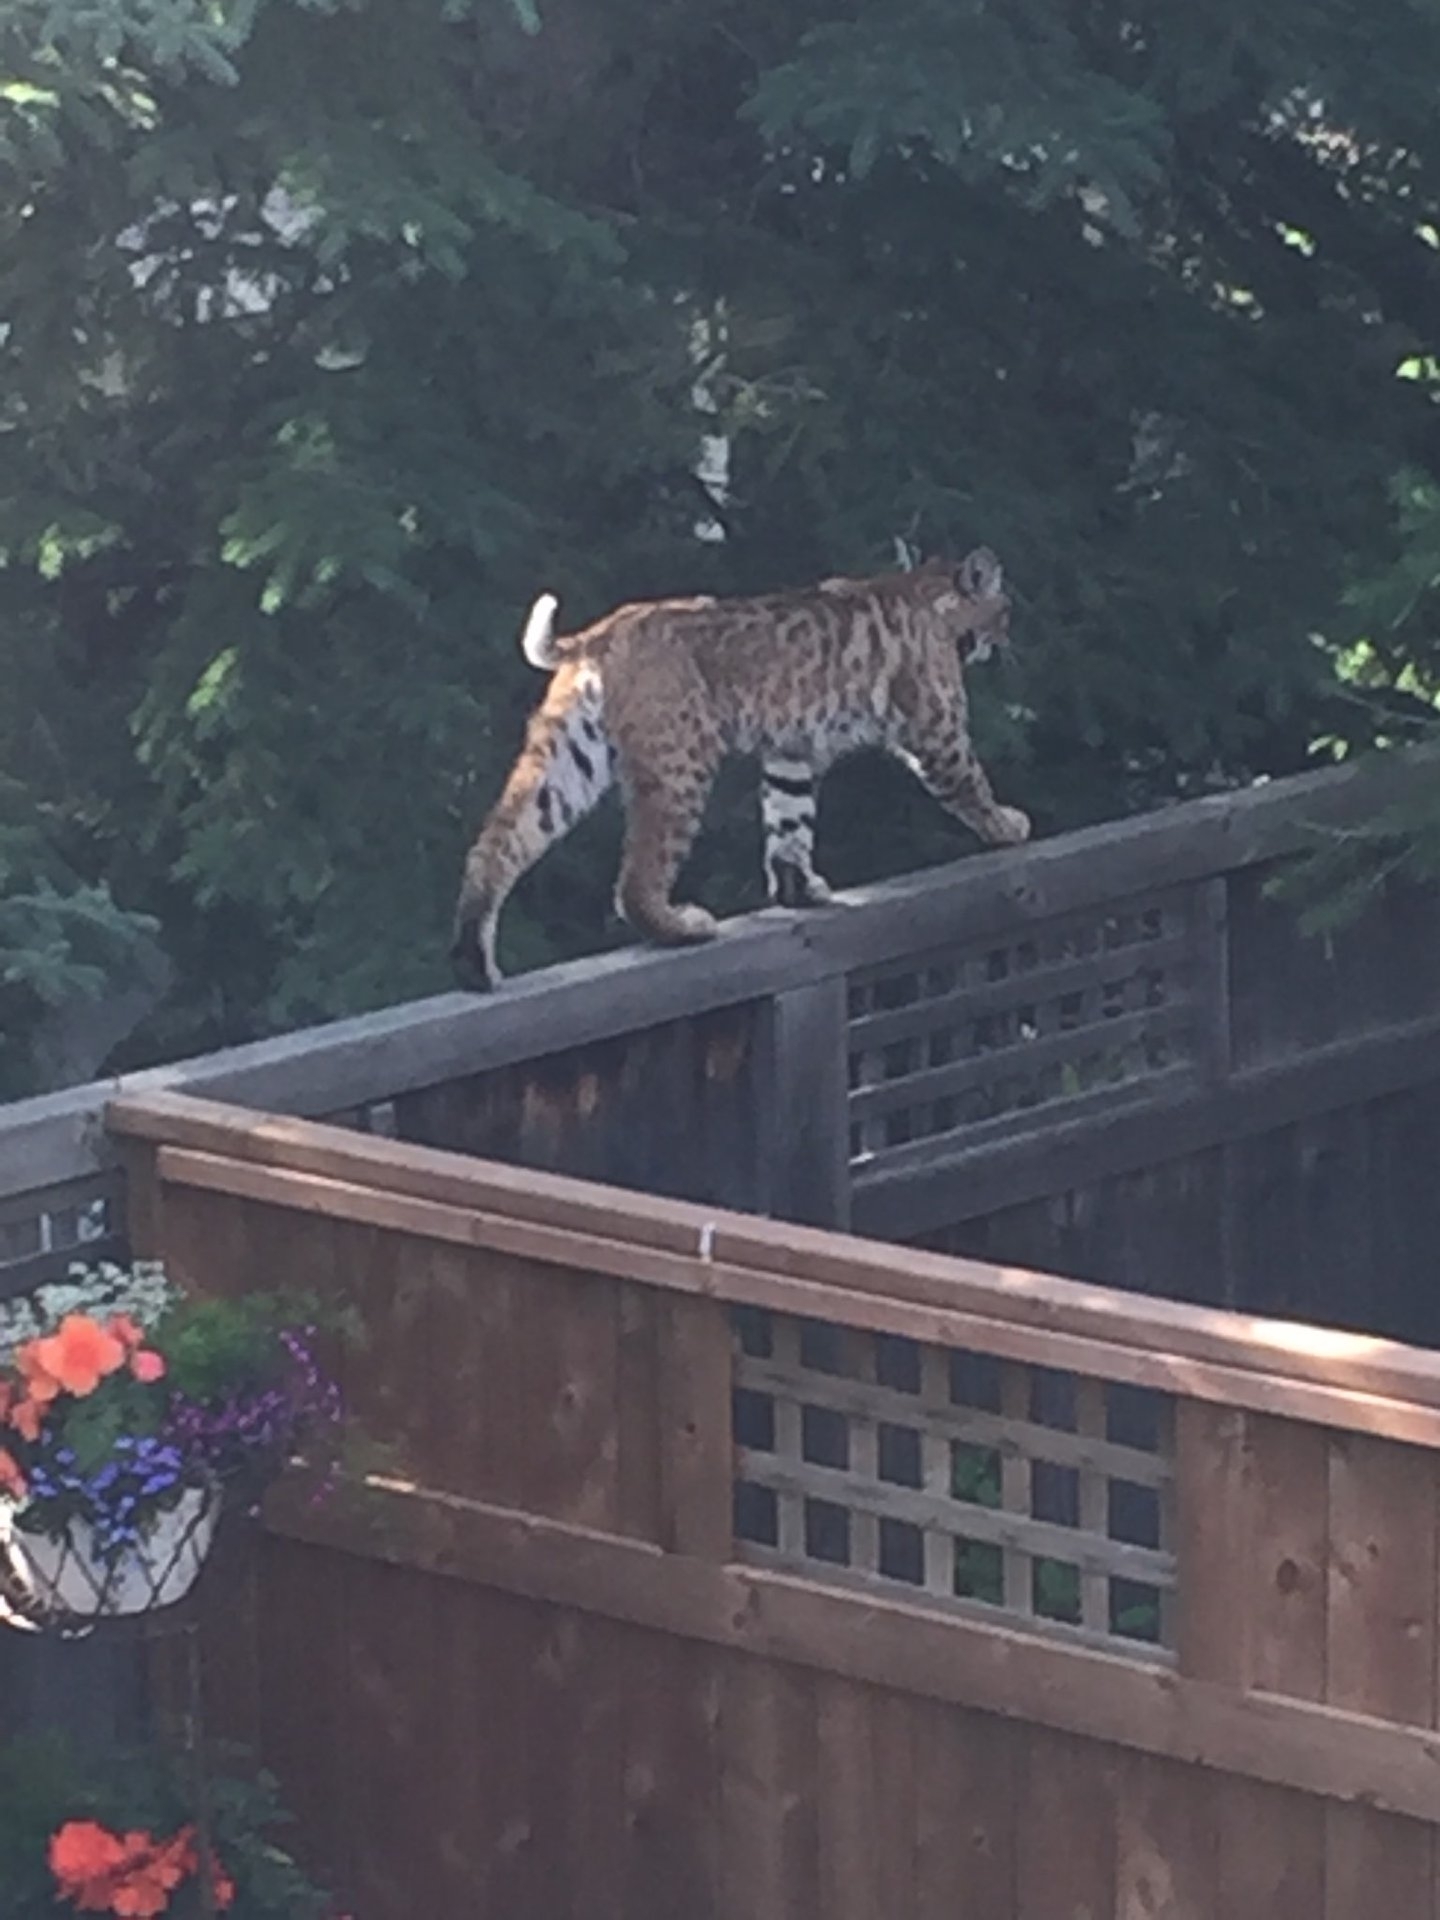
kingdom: Animalia
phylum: Chordata
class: Mammalia
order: Carnivora
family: Felidae
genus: Lynx
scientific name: Lynx rufus
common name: Bobcat
